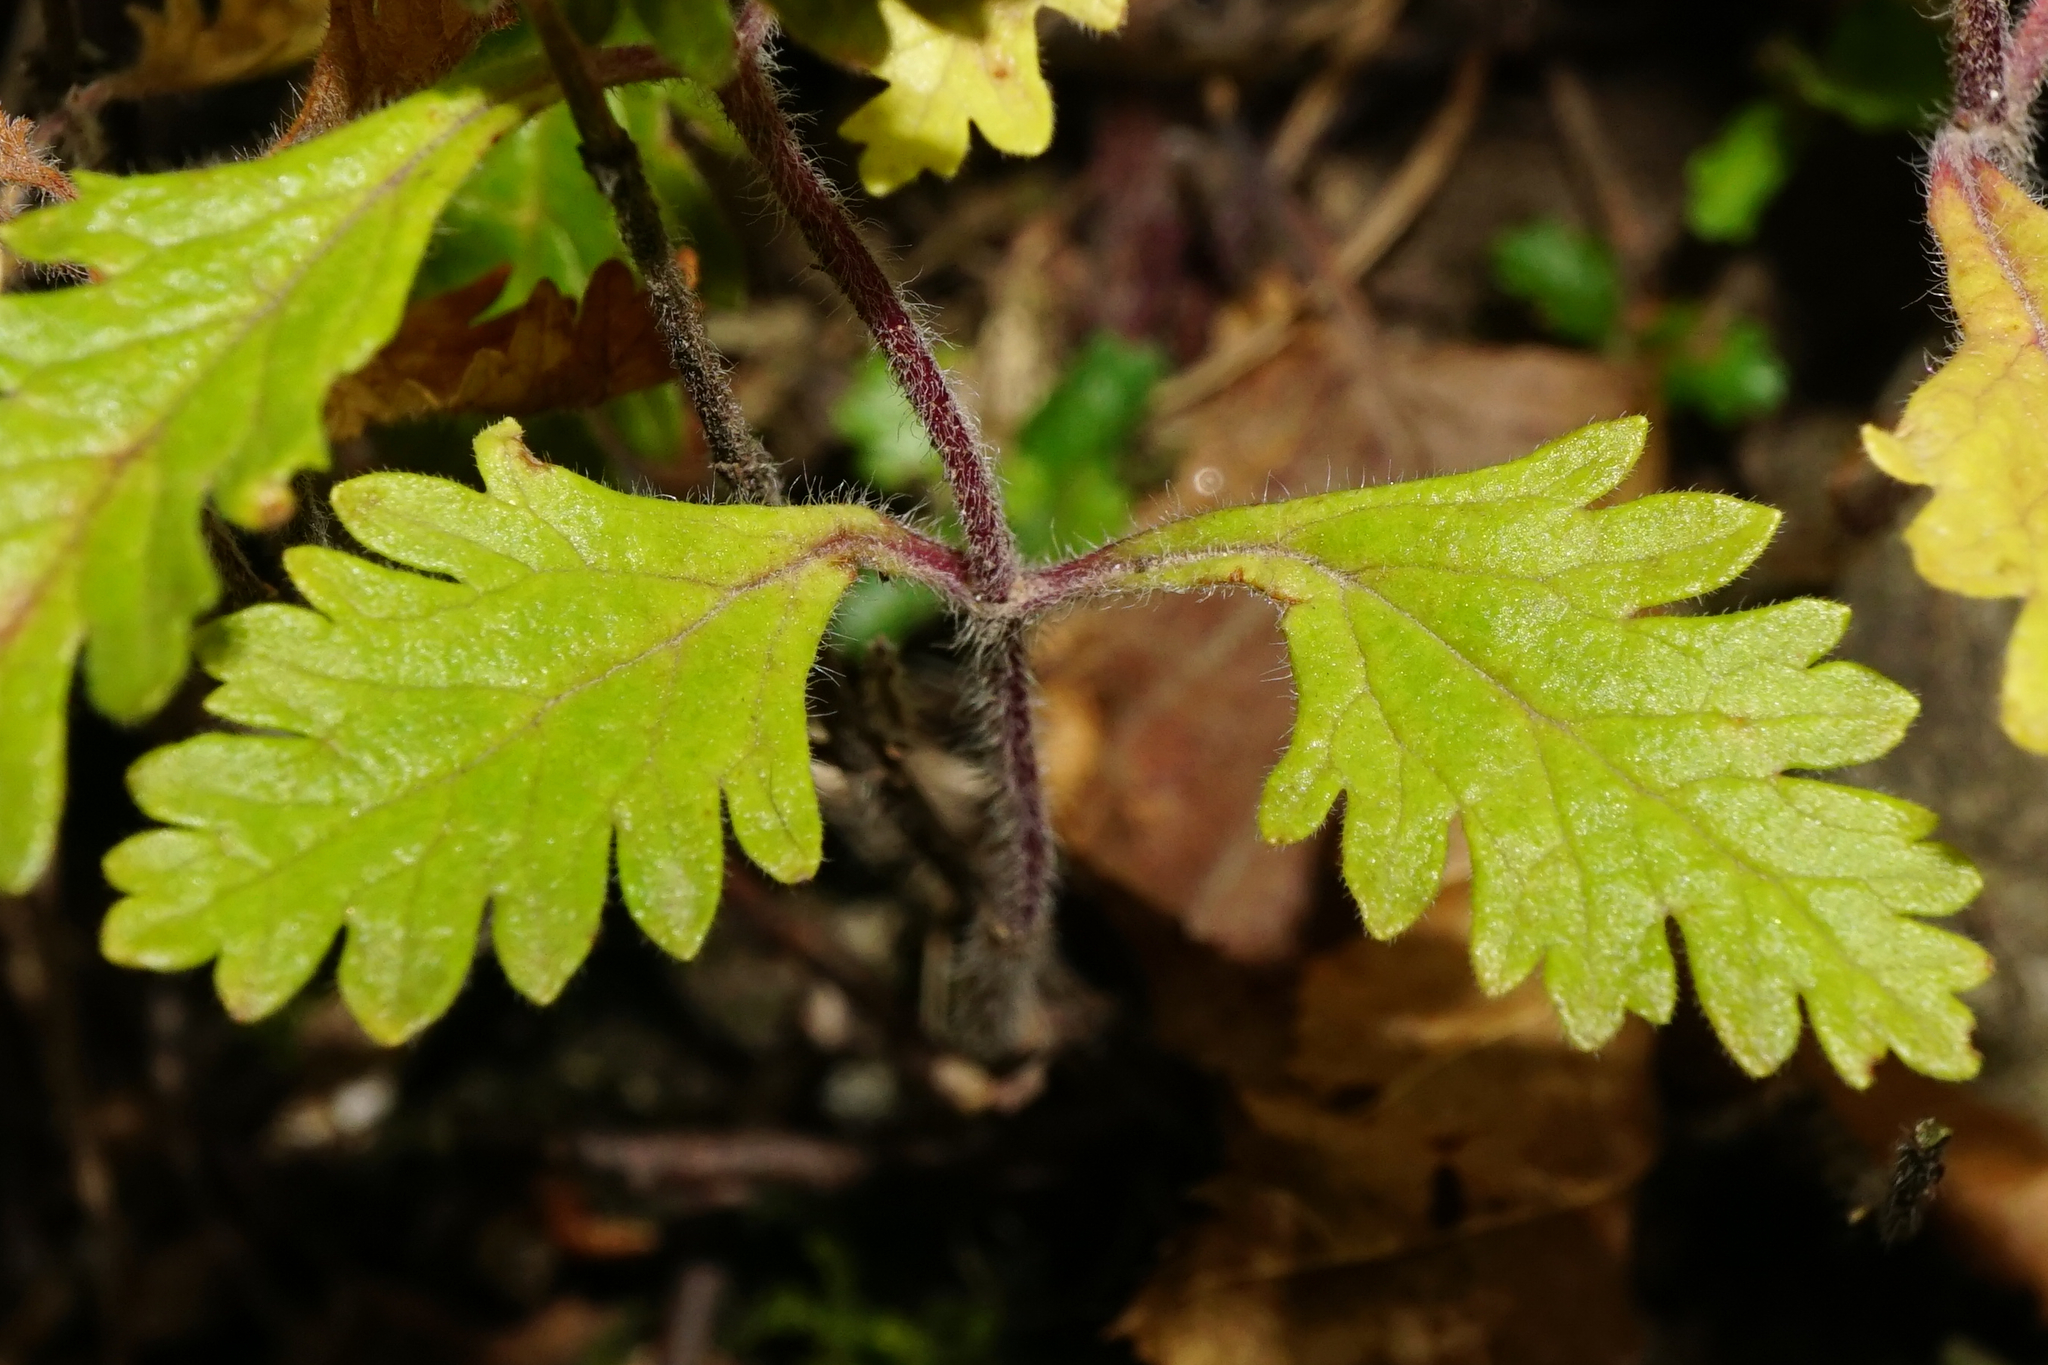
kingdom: Plantae
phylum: Tracheophyta
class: Magnoliopsida
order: Lamiales
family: Lamiaceae
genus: Teucrium
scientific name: Teucrium chamaedrys
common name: Wall germander
